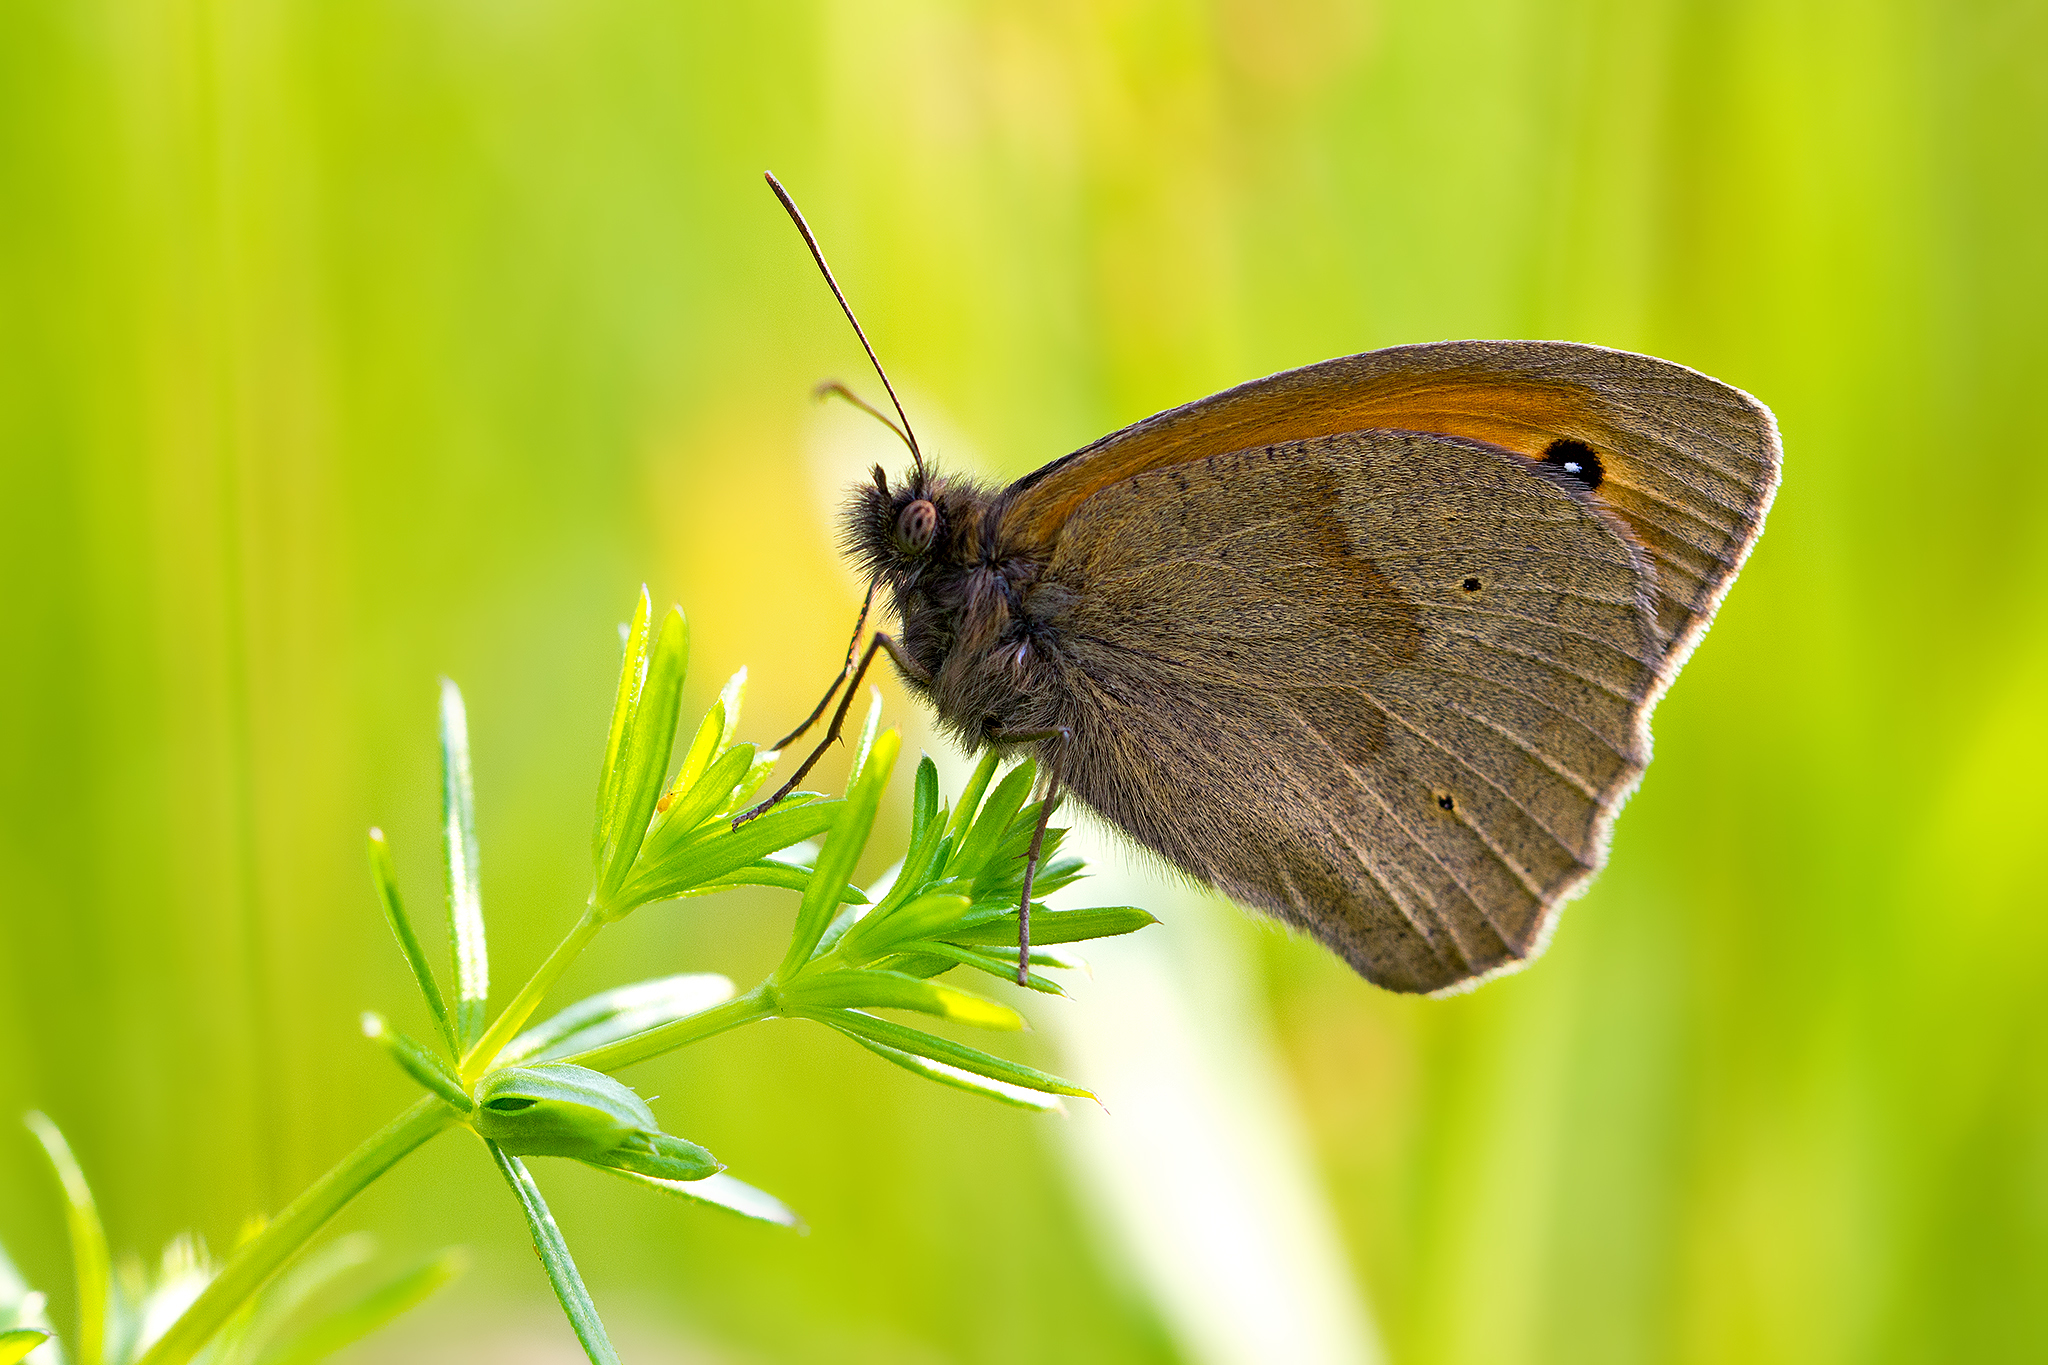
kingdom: Animalia
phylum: Arthropoda
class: Insecta
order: Lepidoptera
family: Nymphalidae
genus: Maniola
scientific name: Maniola jurtina
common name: Meadow brown
